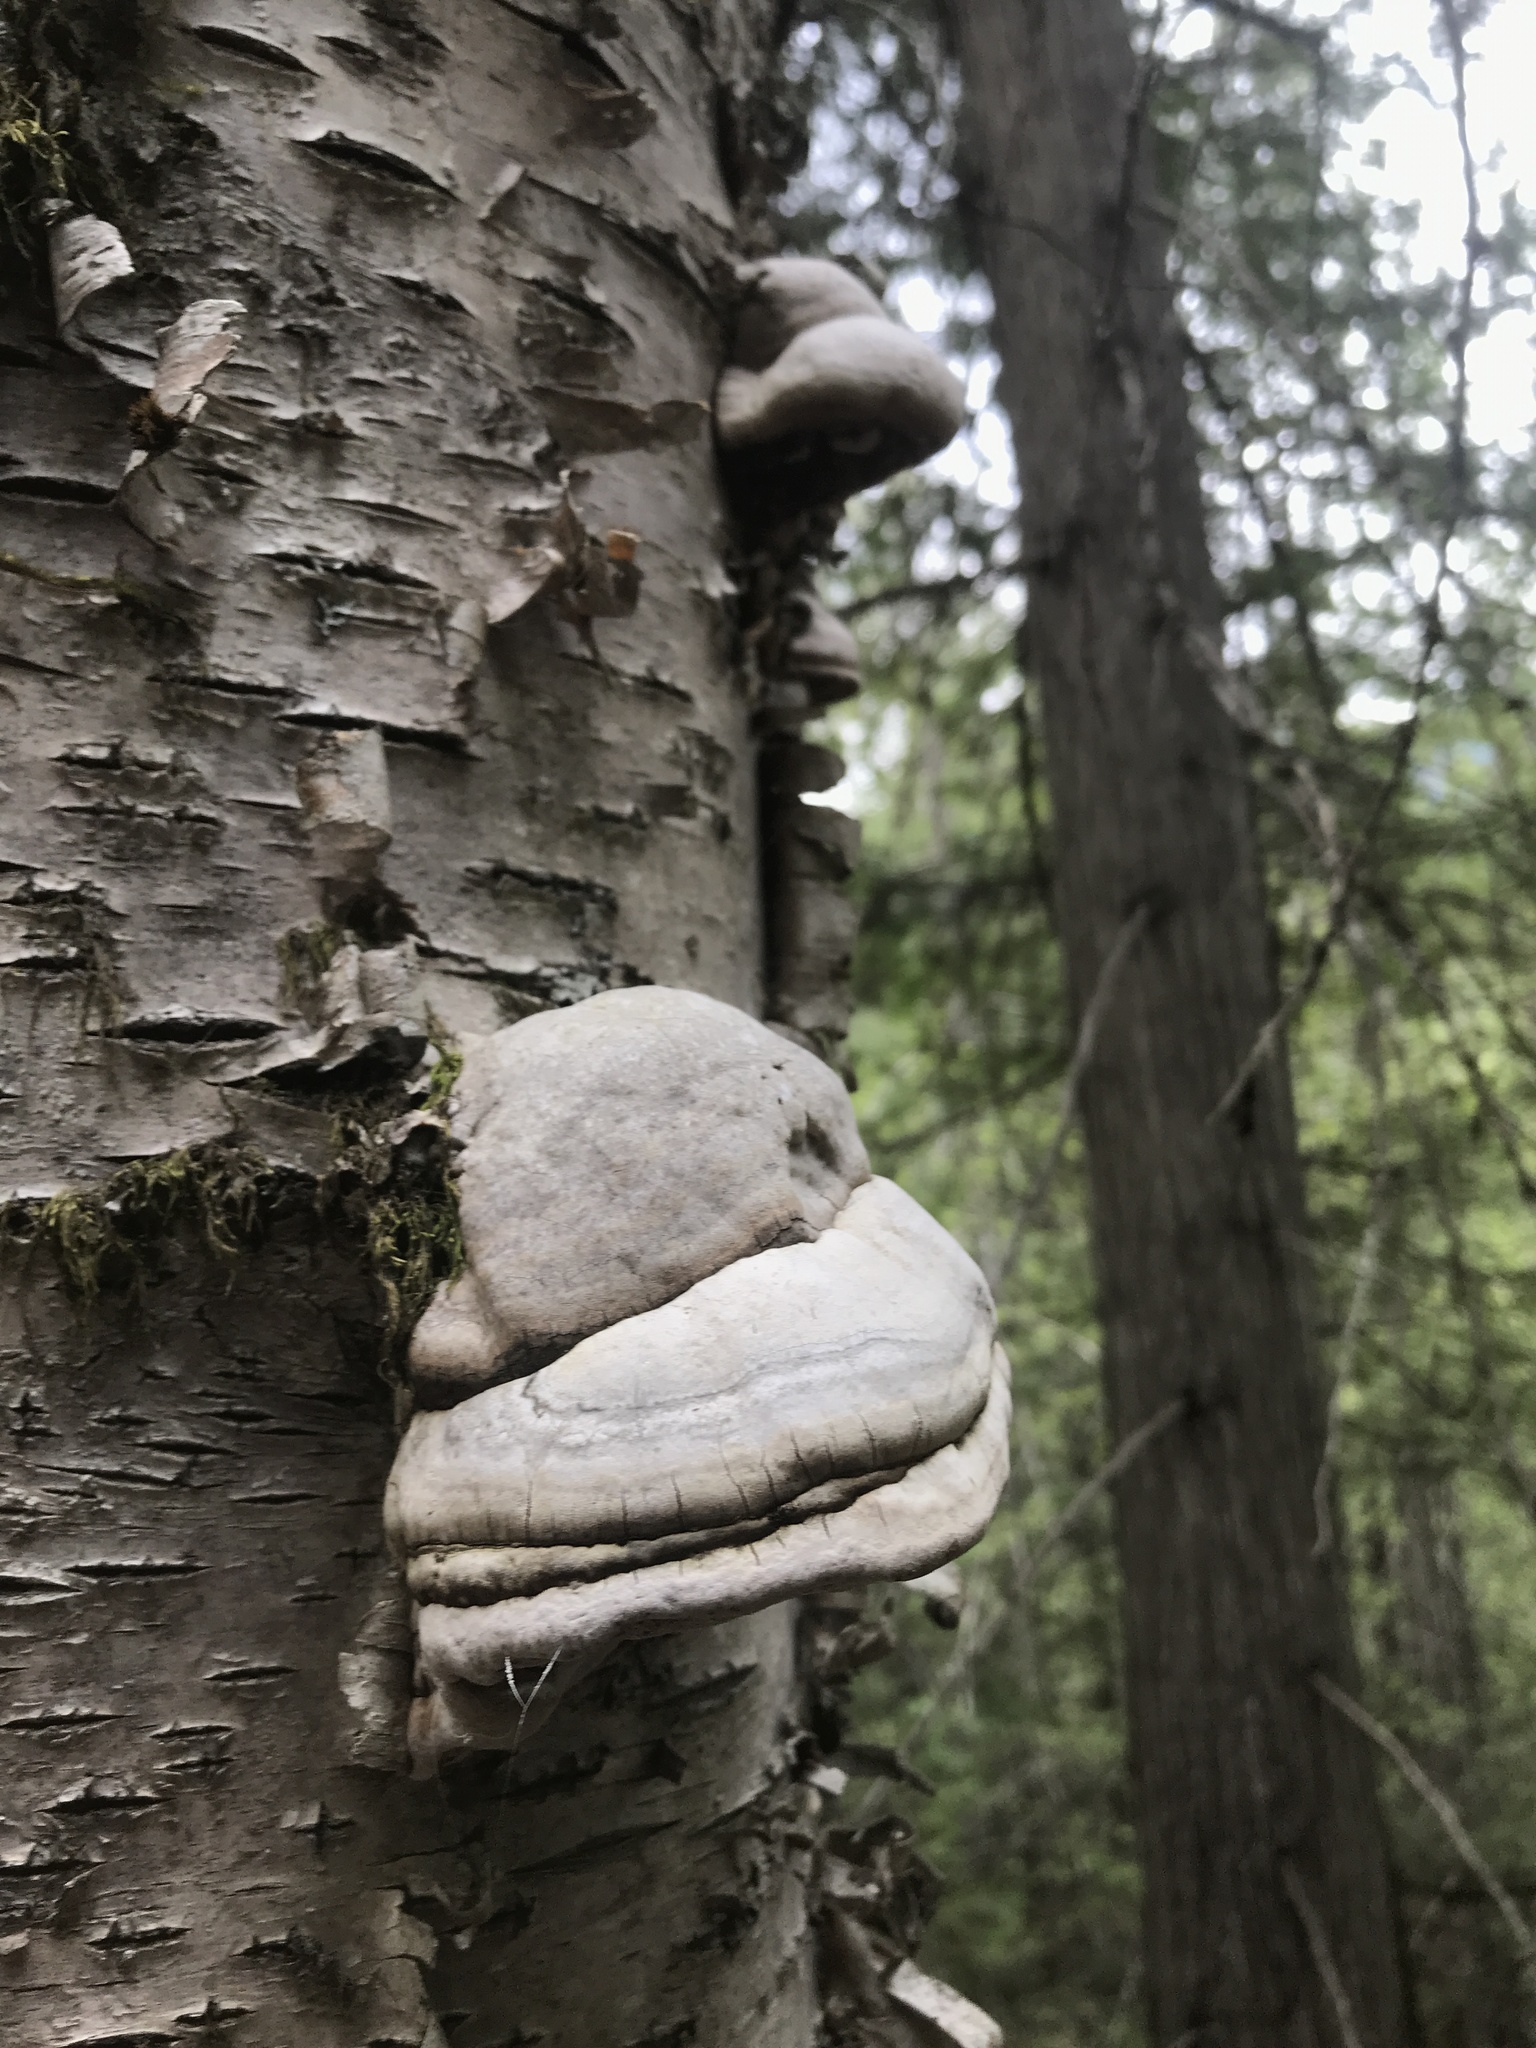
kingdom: Fungi
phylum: Basidiomycota
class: Agaricomycetes
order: Polyporales
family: Polyporaceae
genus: Fomes
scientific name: Fomes fomentarius
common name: Hoof fungus
